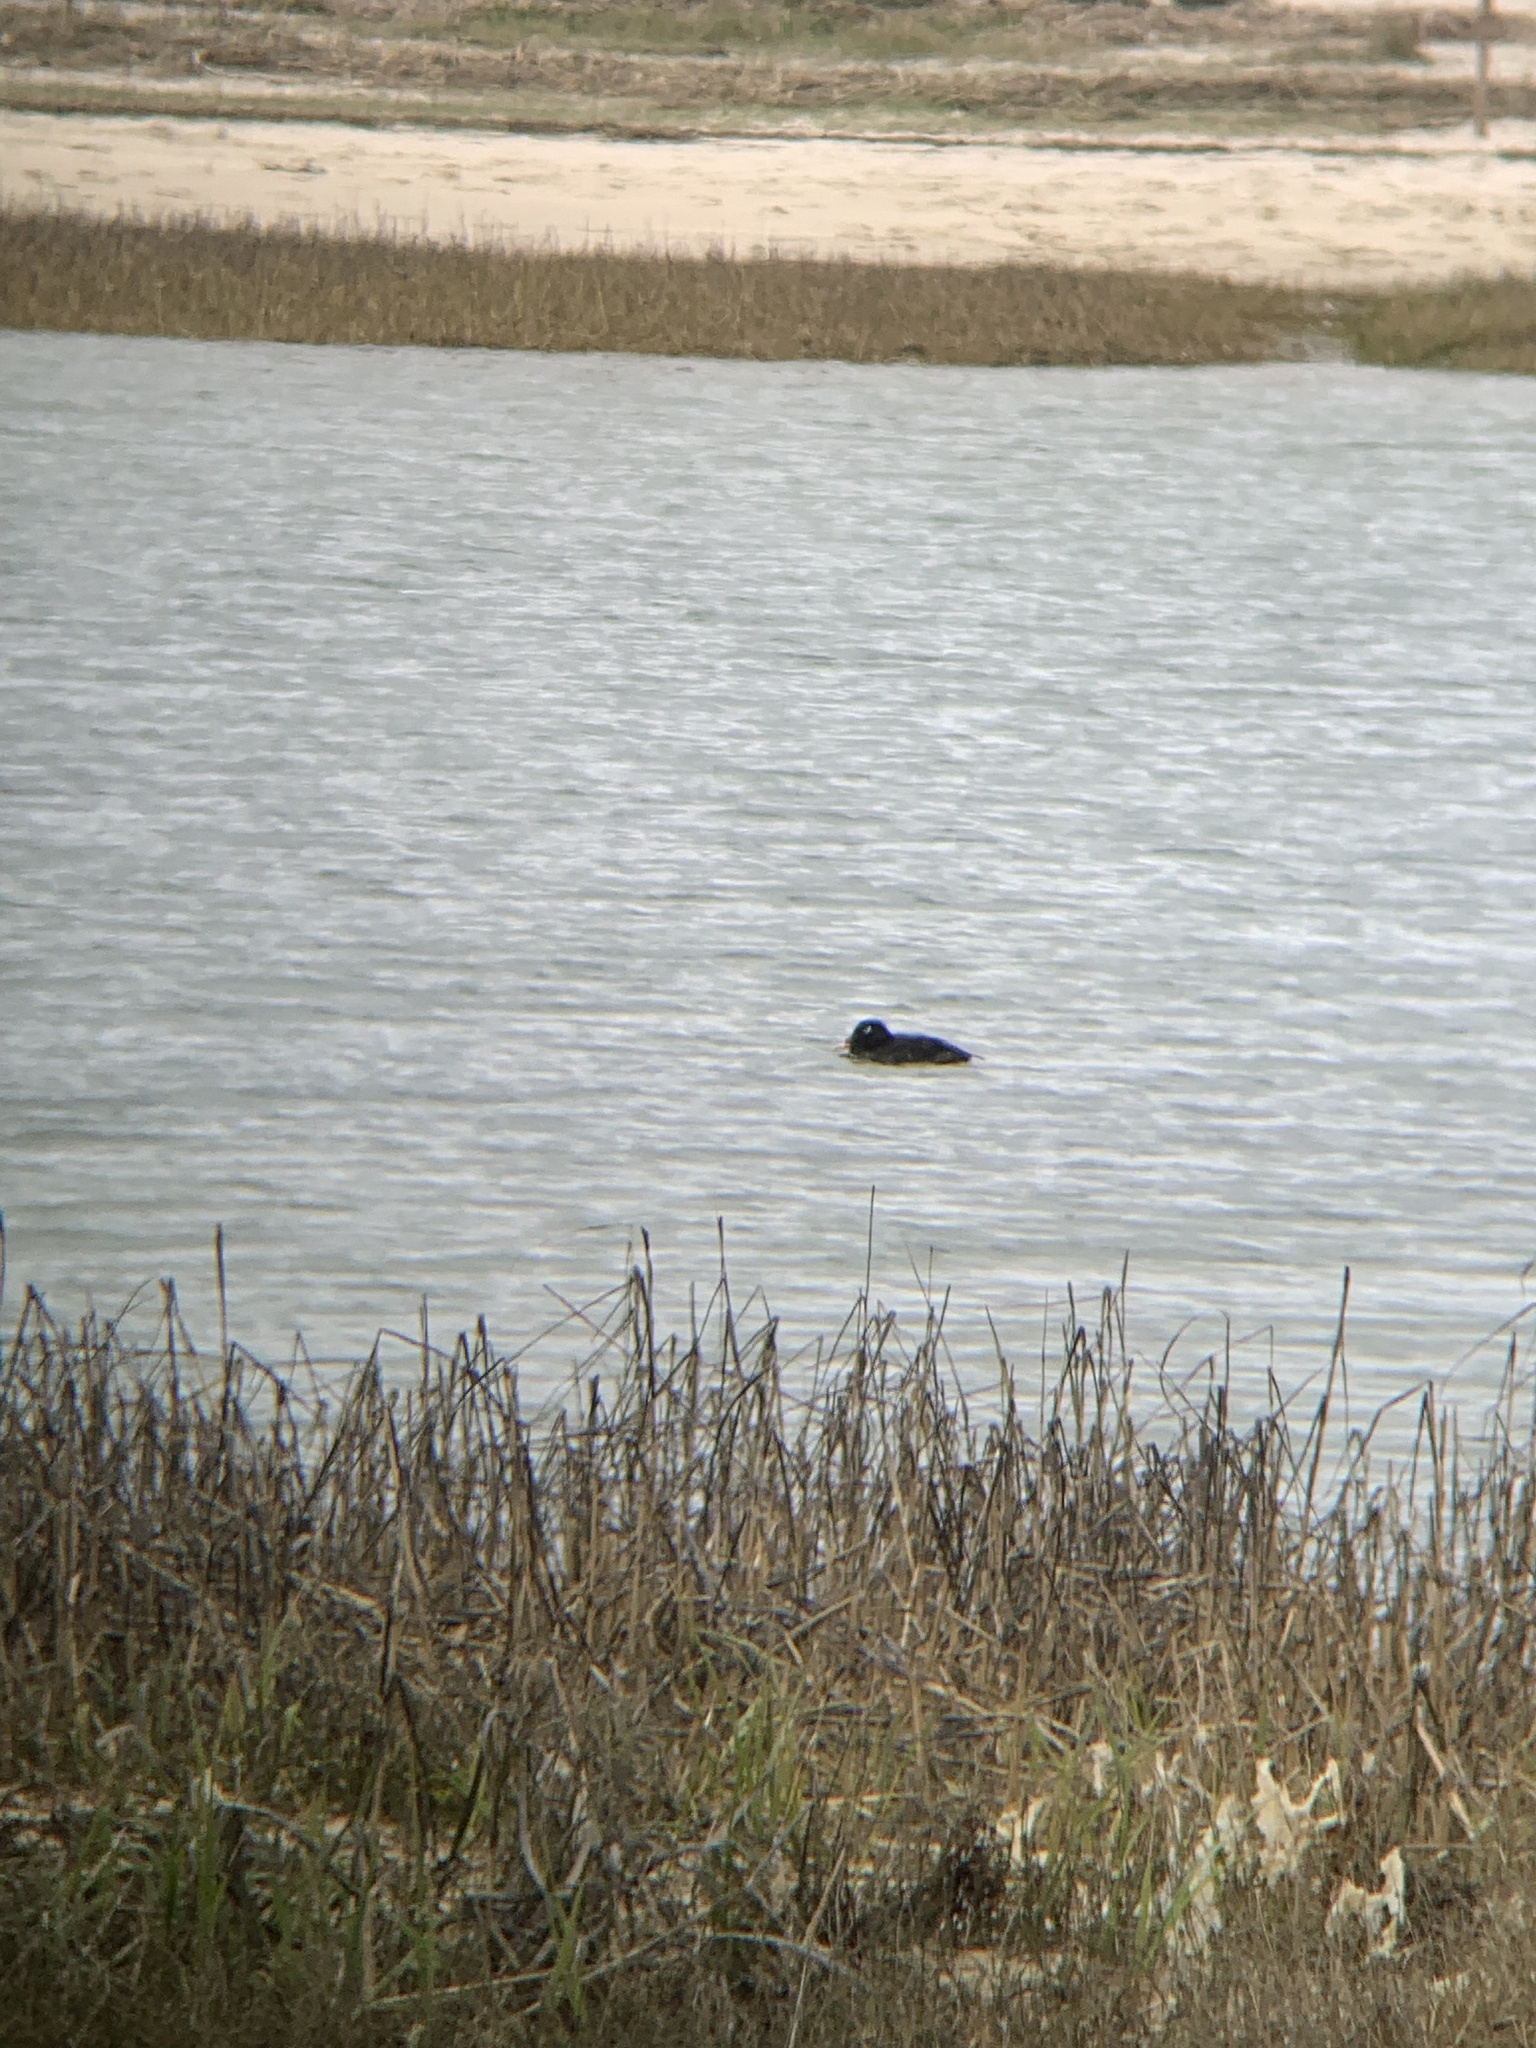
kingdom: Animalia
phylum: Chordata
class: Aves
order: Anseriformes
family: Anatidae
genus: Melanitta
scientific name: Melanitta deglandi
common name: White-winged scoter
